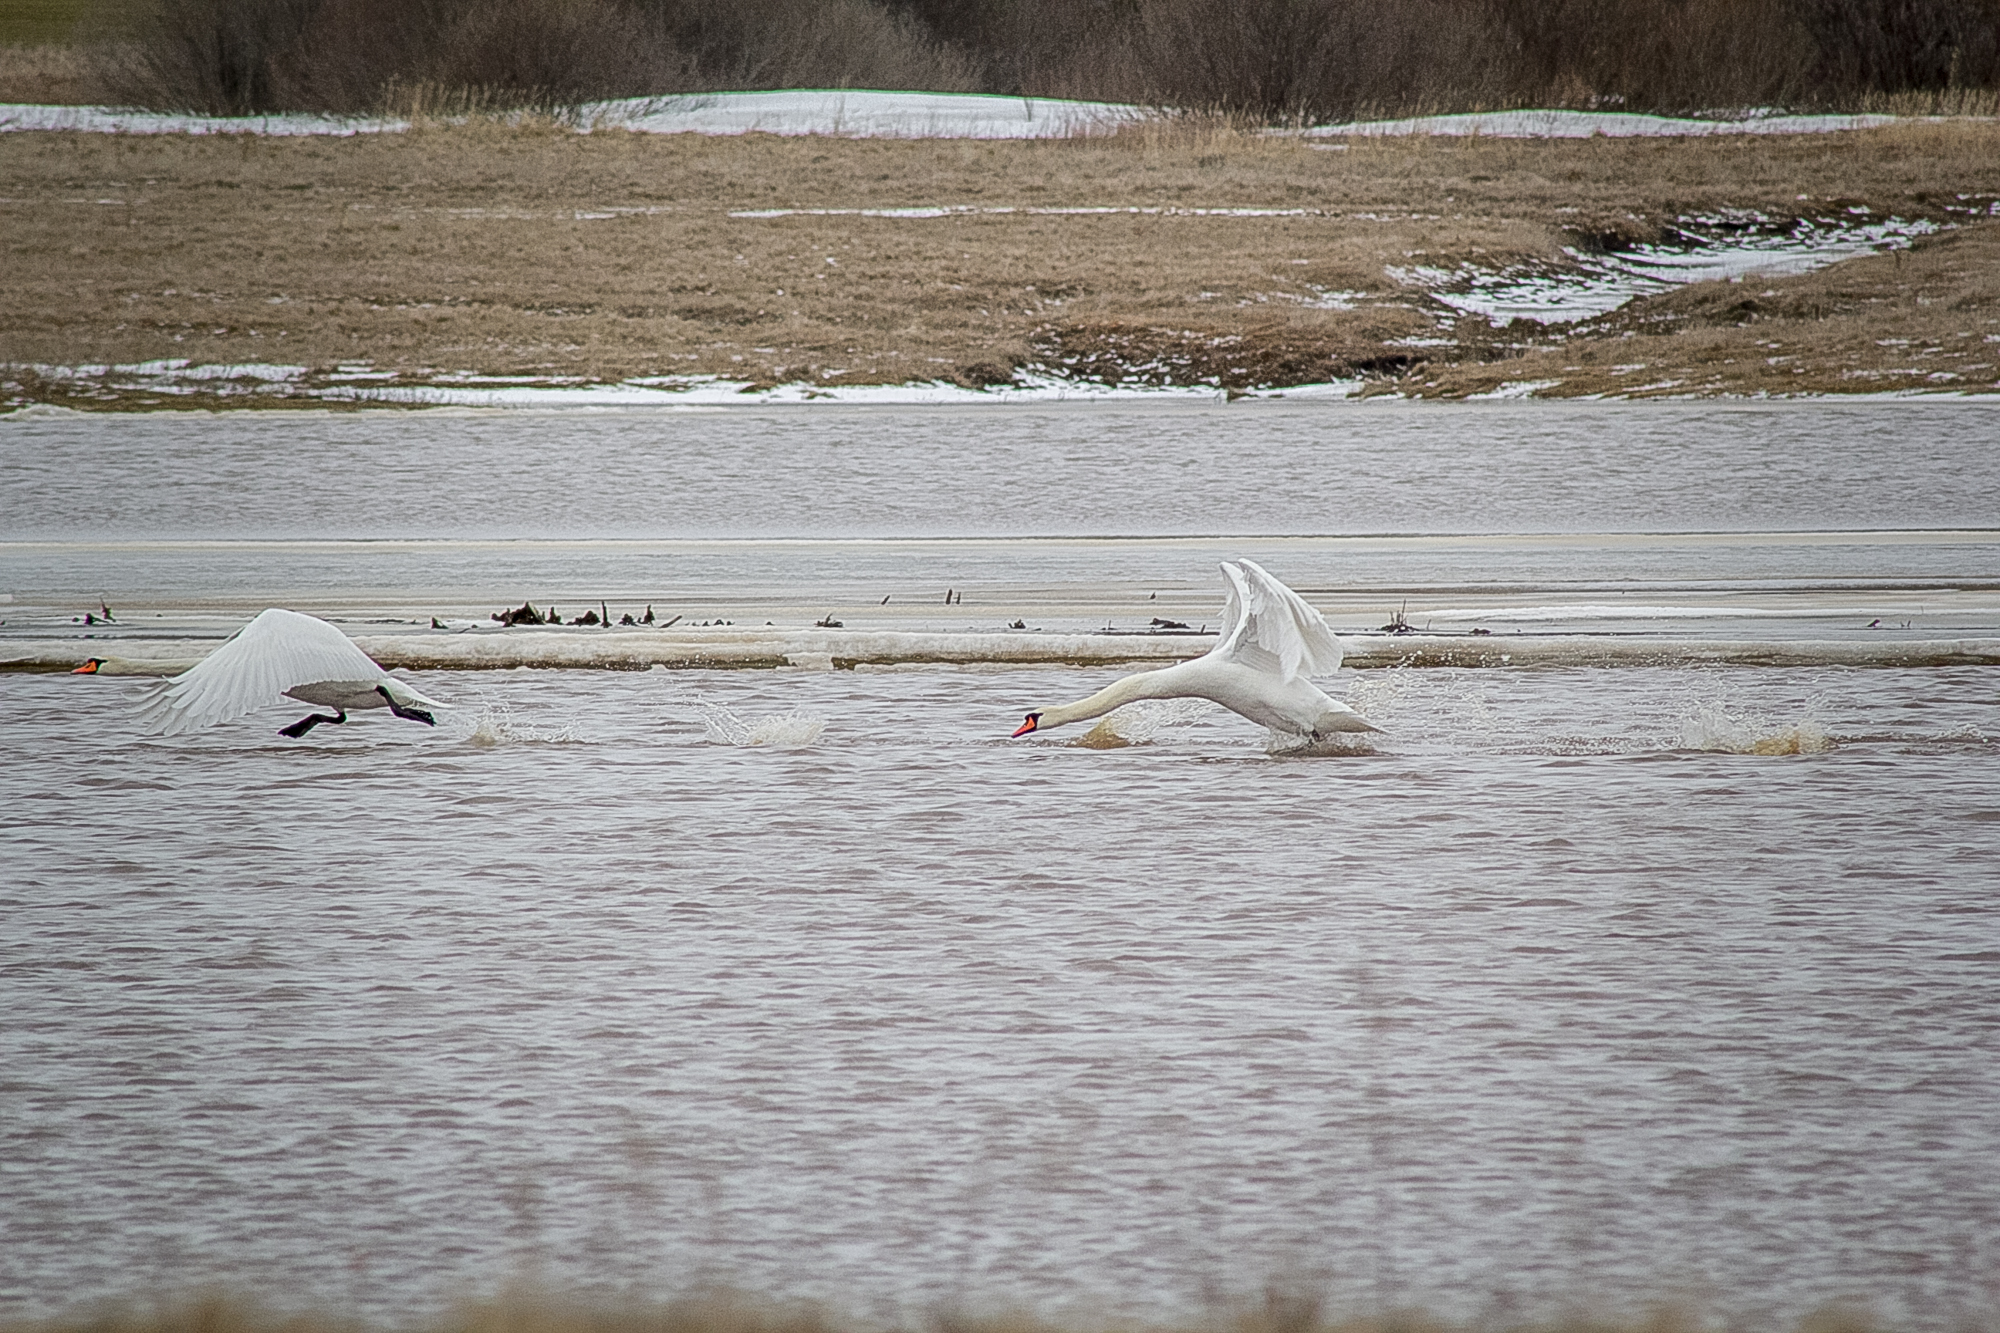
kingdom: Animalia
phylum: Chordata
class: Aves
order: Anseriformes
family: Anatidae
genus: Cygnus
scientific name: Cygnus olor
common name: Mute swan
